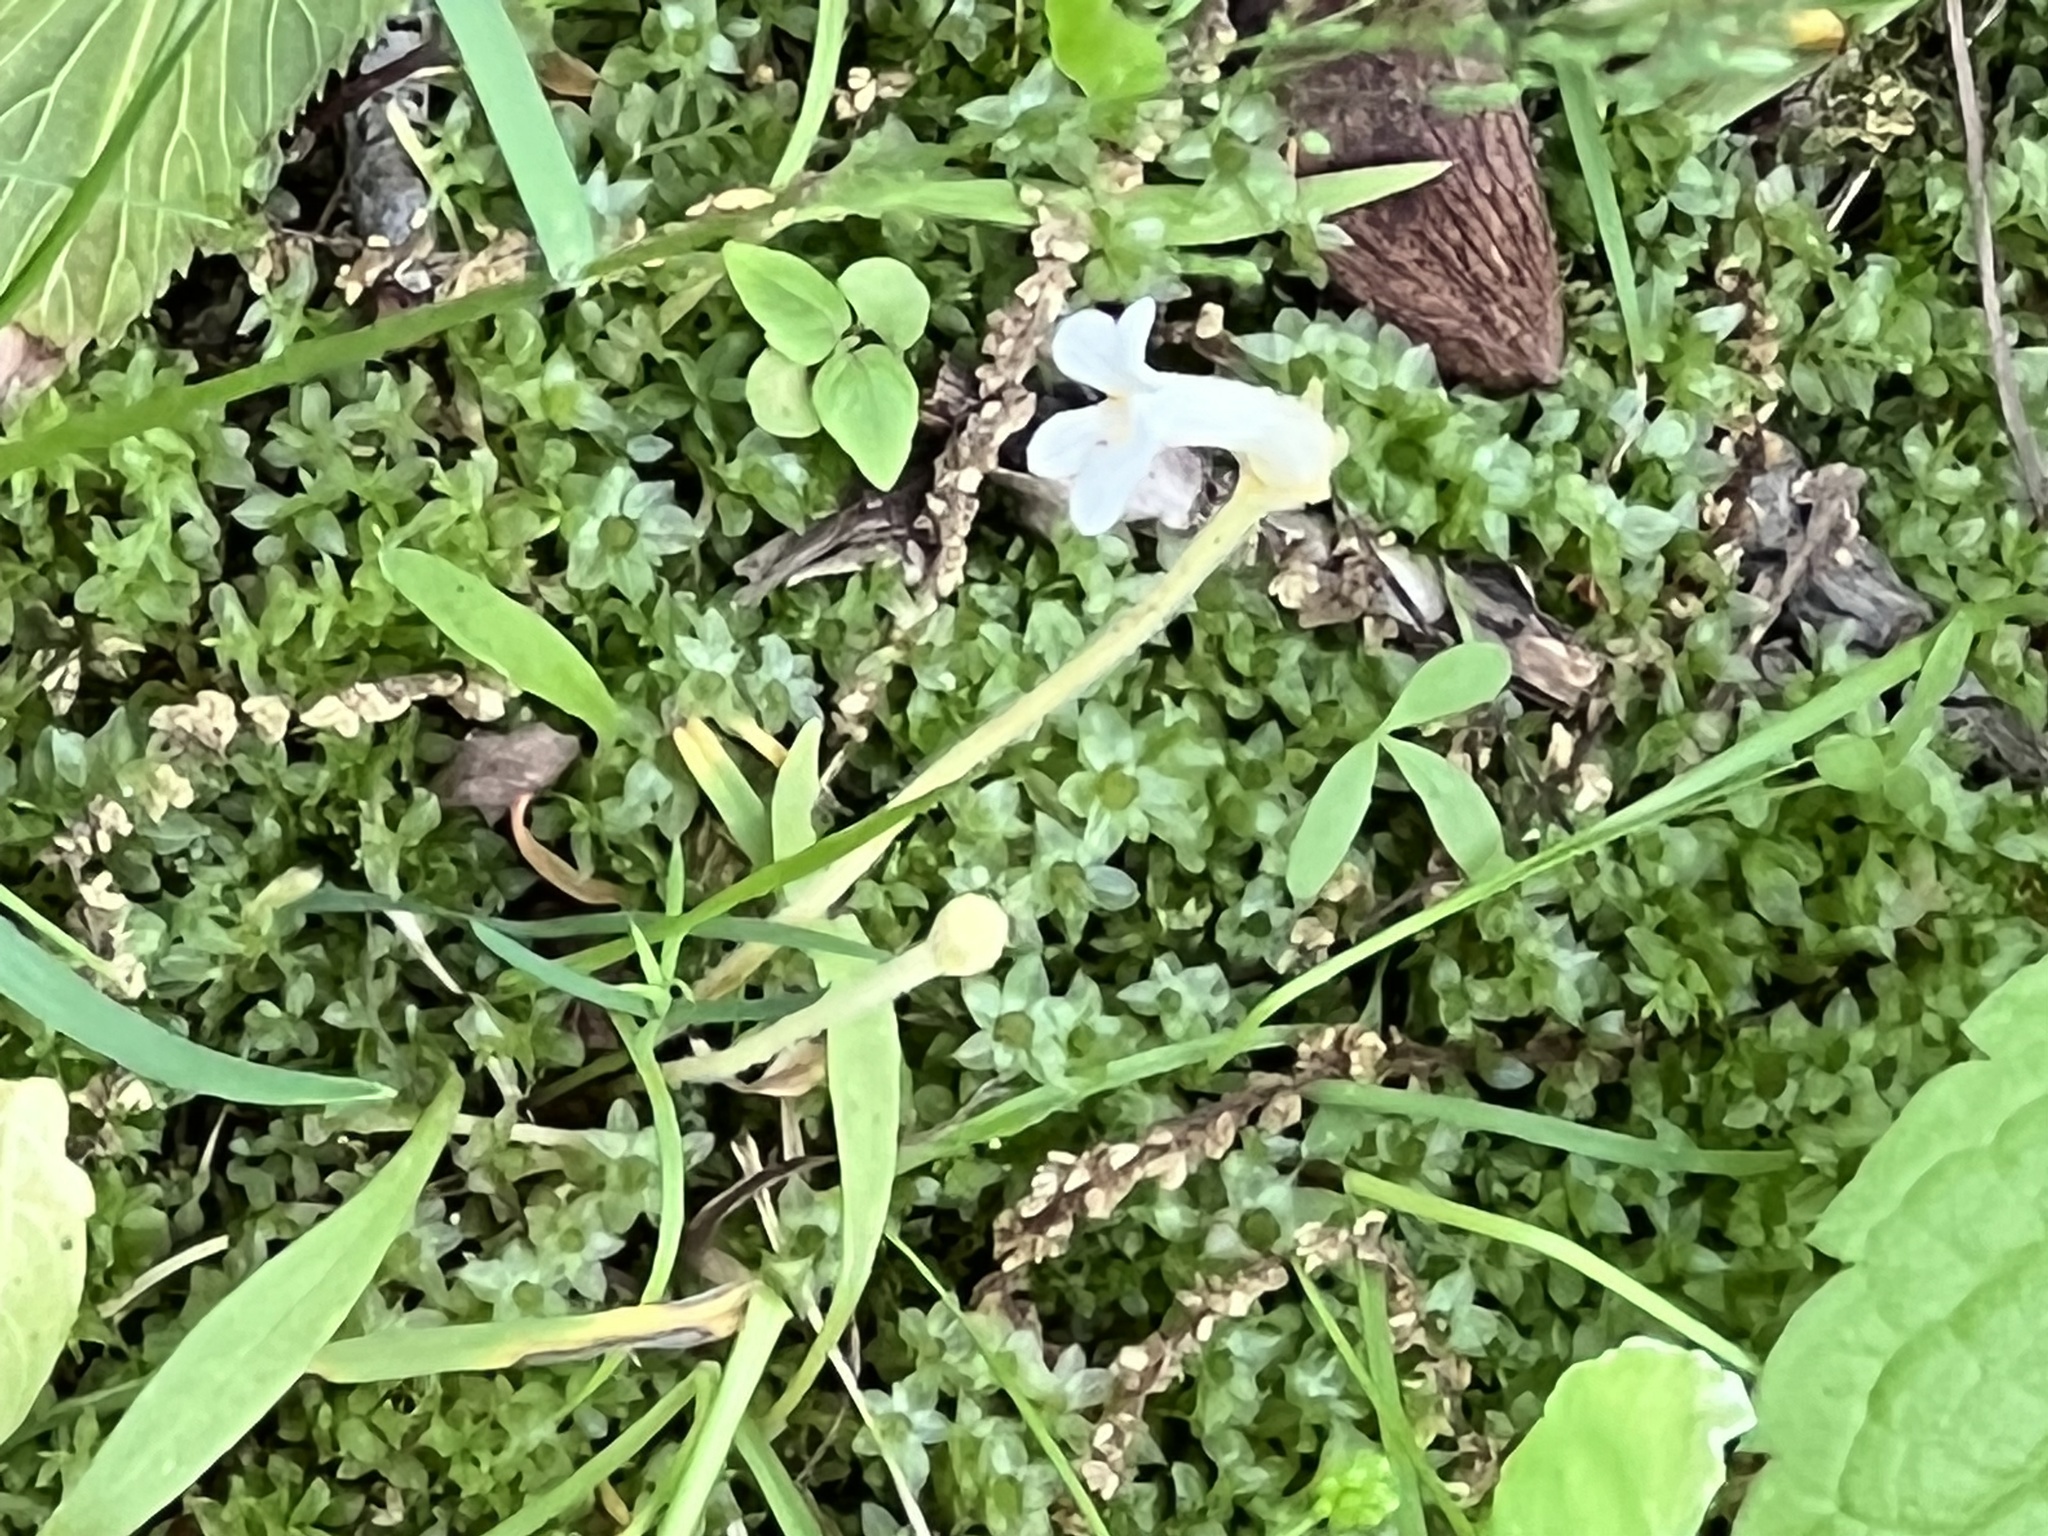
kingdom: Plantae
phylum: Tracheophyta
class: Magnoliopsida
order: Lamiales
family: Orobanchaceae
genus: Aphyllon
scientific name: Aphyllon uniflorum
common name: One-flowered broomrape
